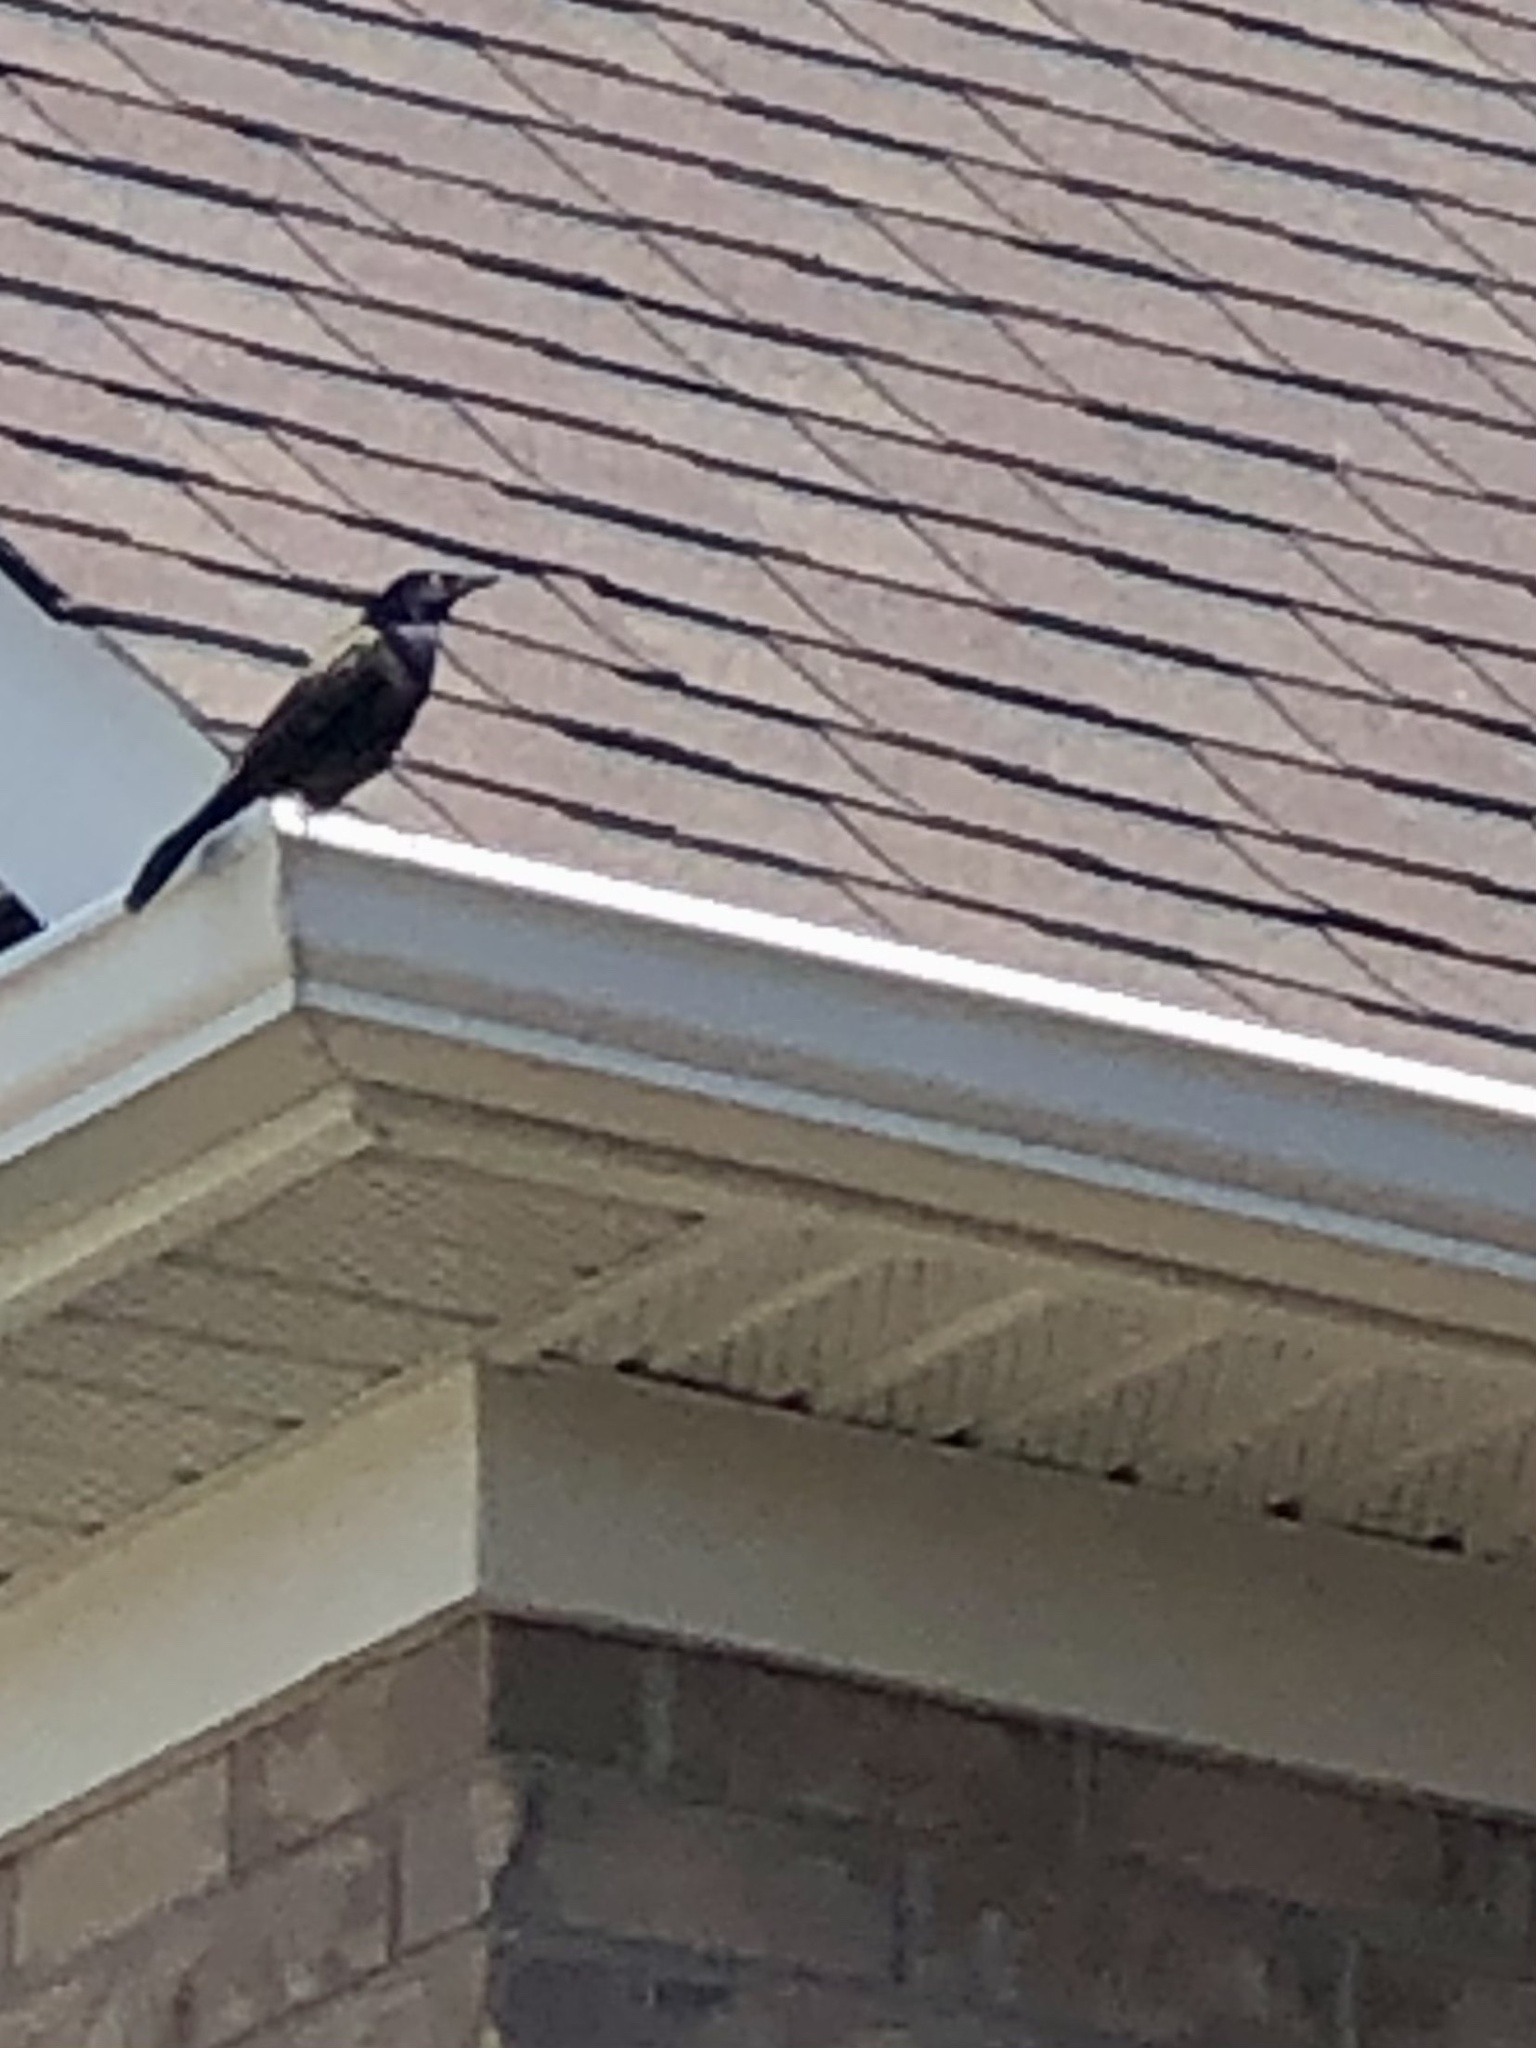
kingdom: Animalia
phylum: Chordata
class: Aves
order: Passeriformes
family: Icteridae
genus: Quiscalus
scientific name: Quiscalus quiscula
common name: Common grackle
